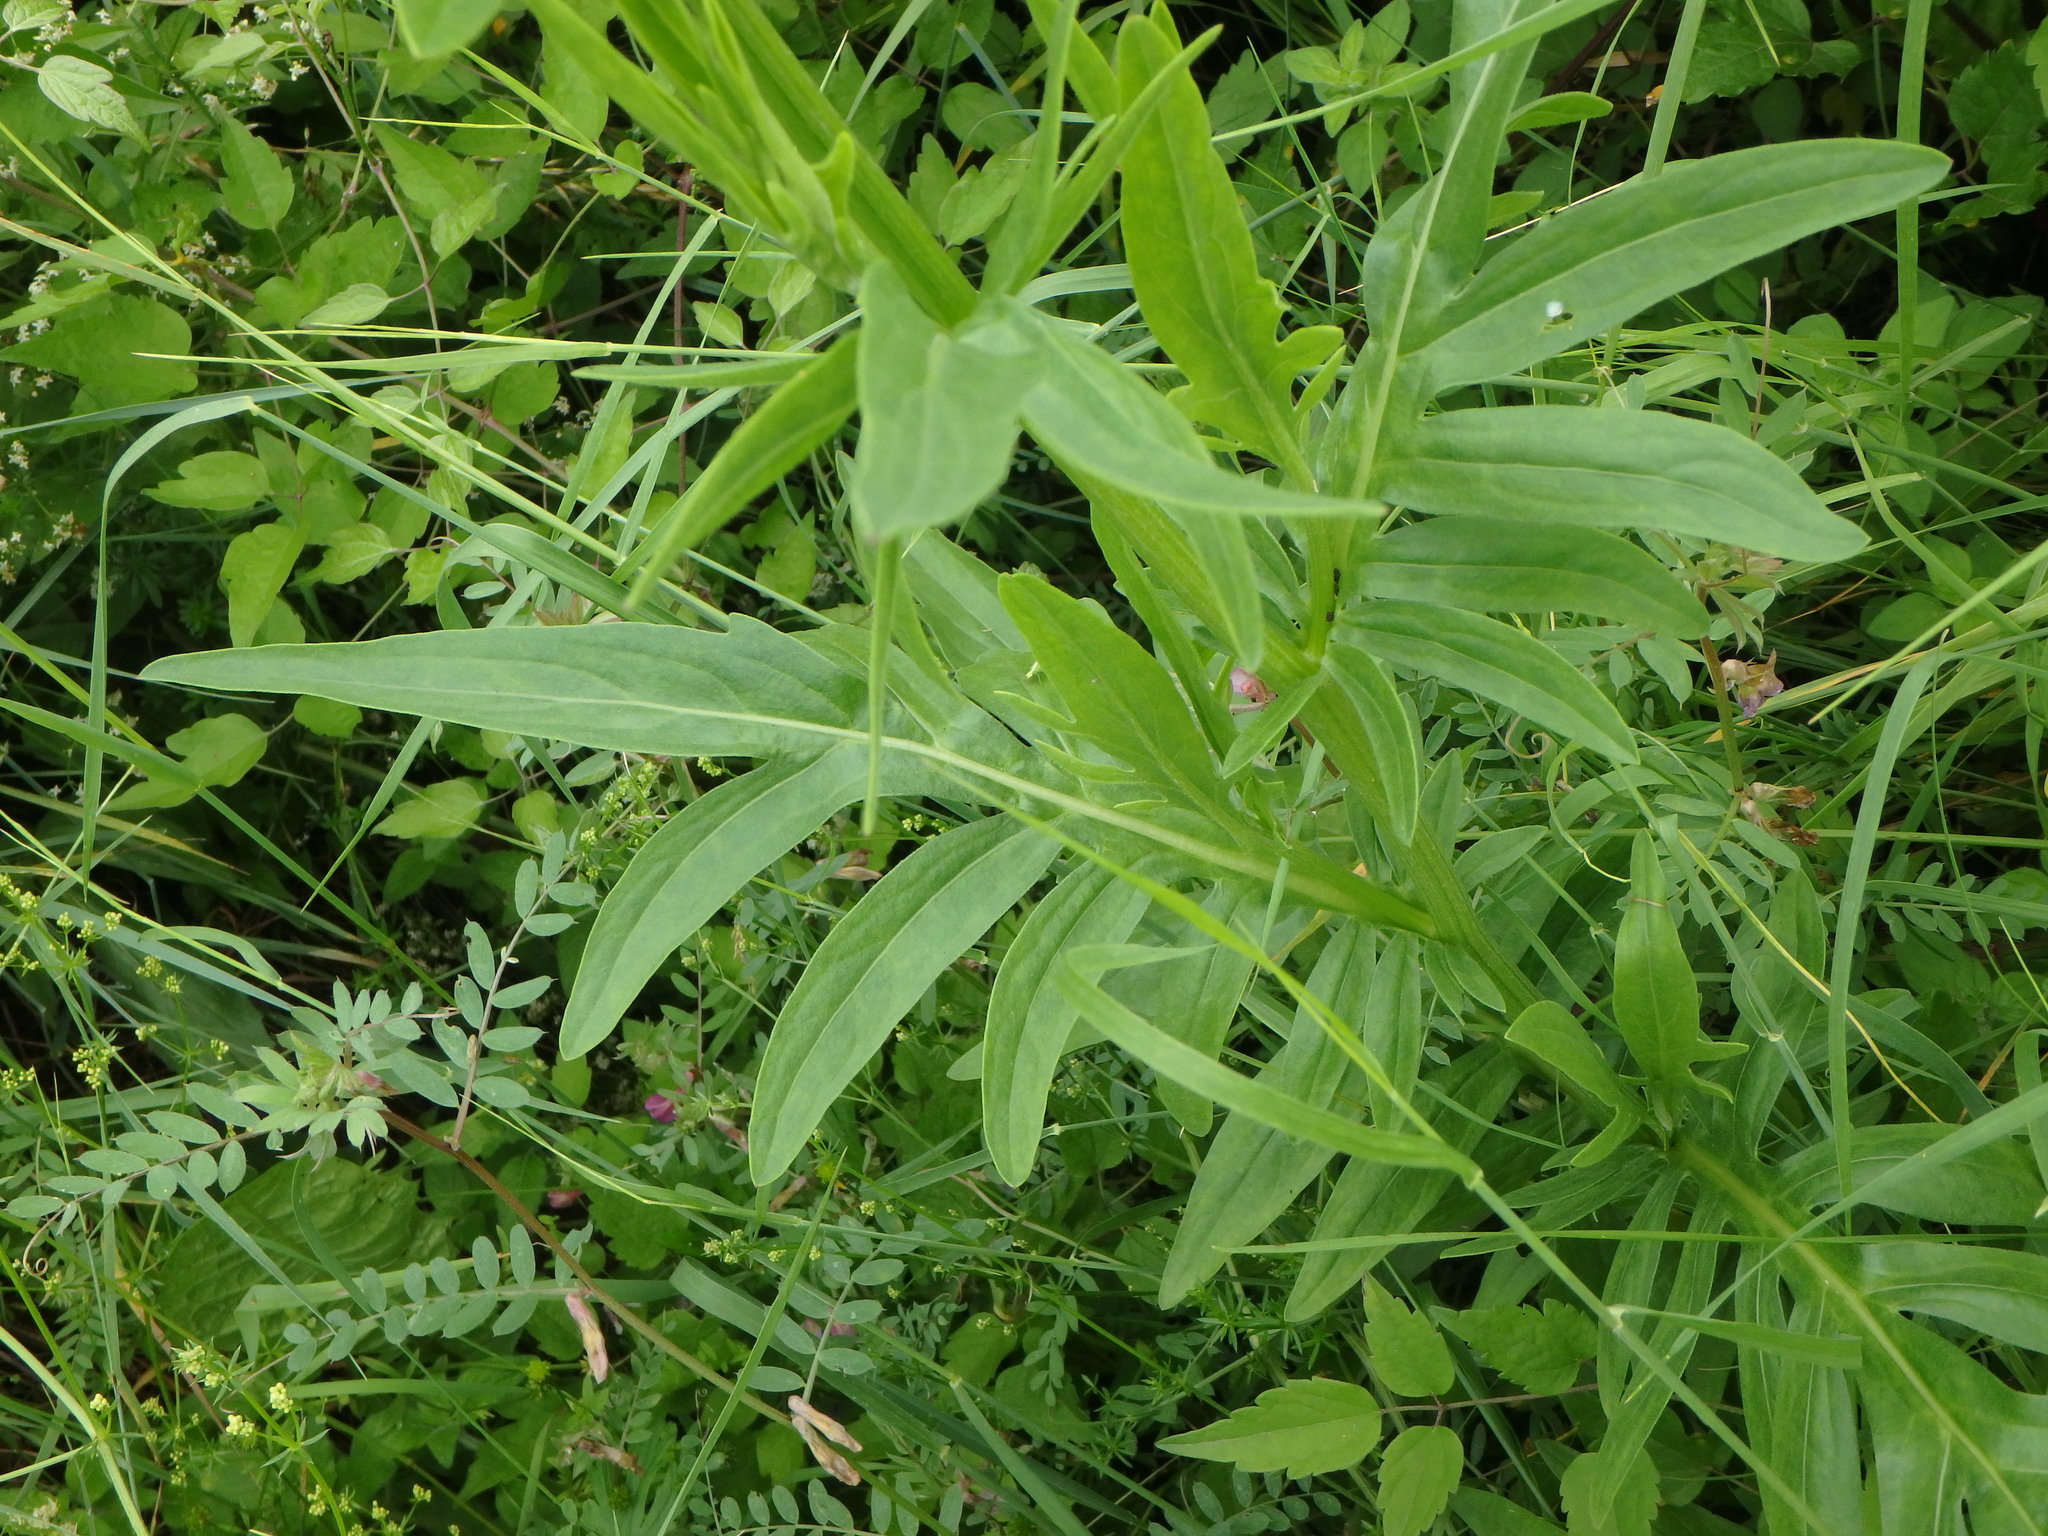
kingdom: Plantae
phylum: Tracheophyta
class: Magnoliopsida
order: Asterales
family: Asteraceae
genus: Centaurea
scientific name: Centaurea scabiosa
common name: Greater knapweed
